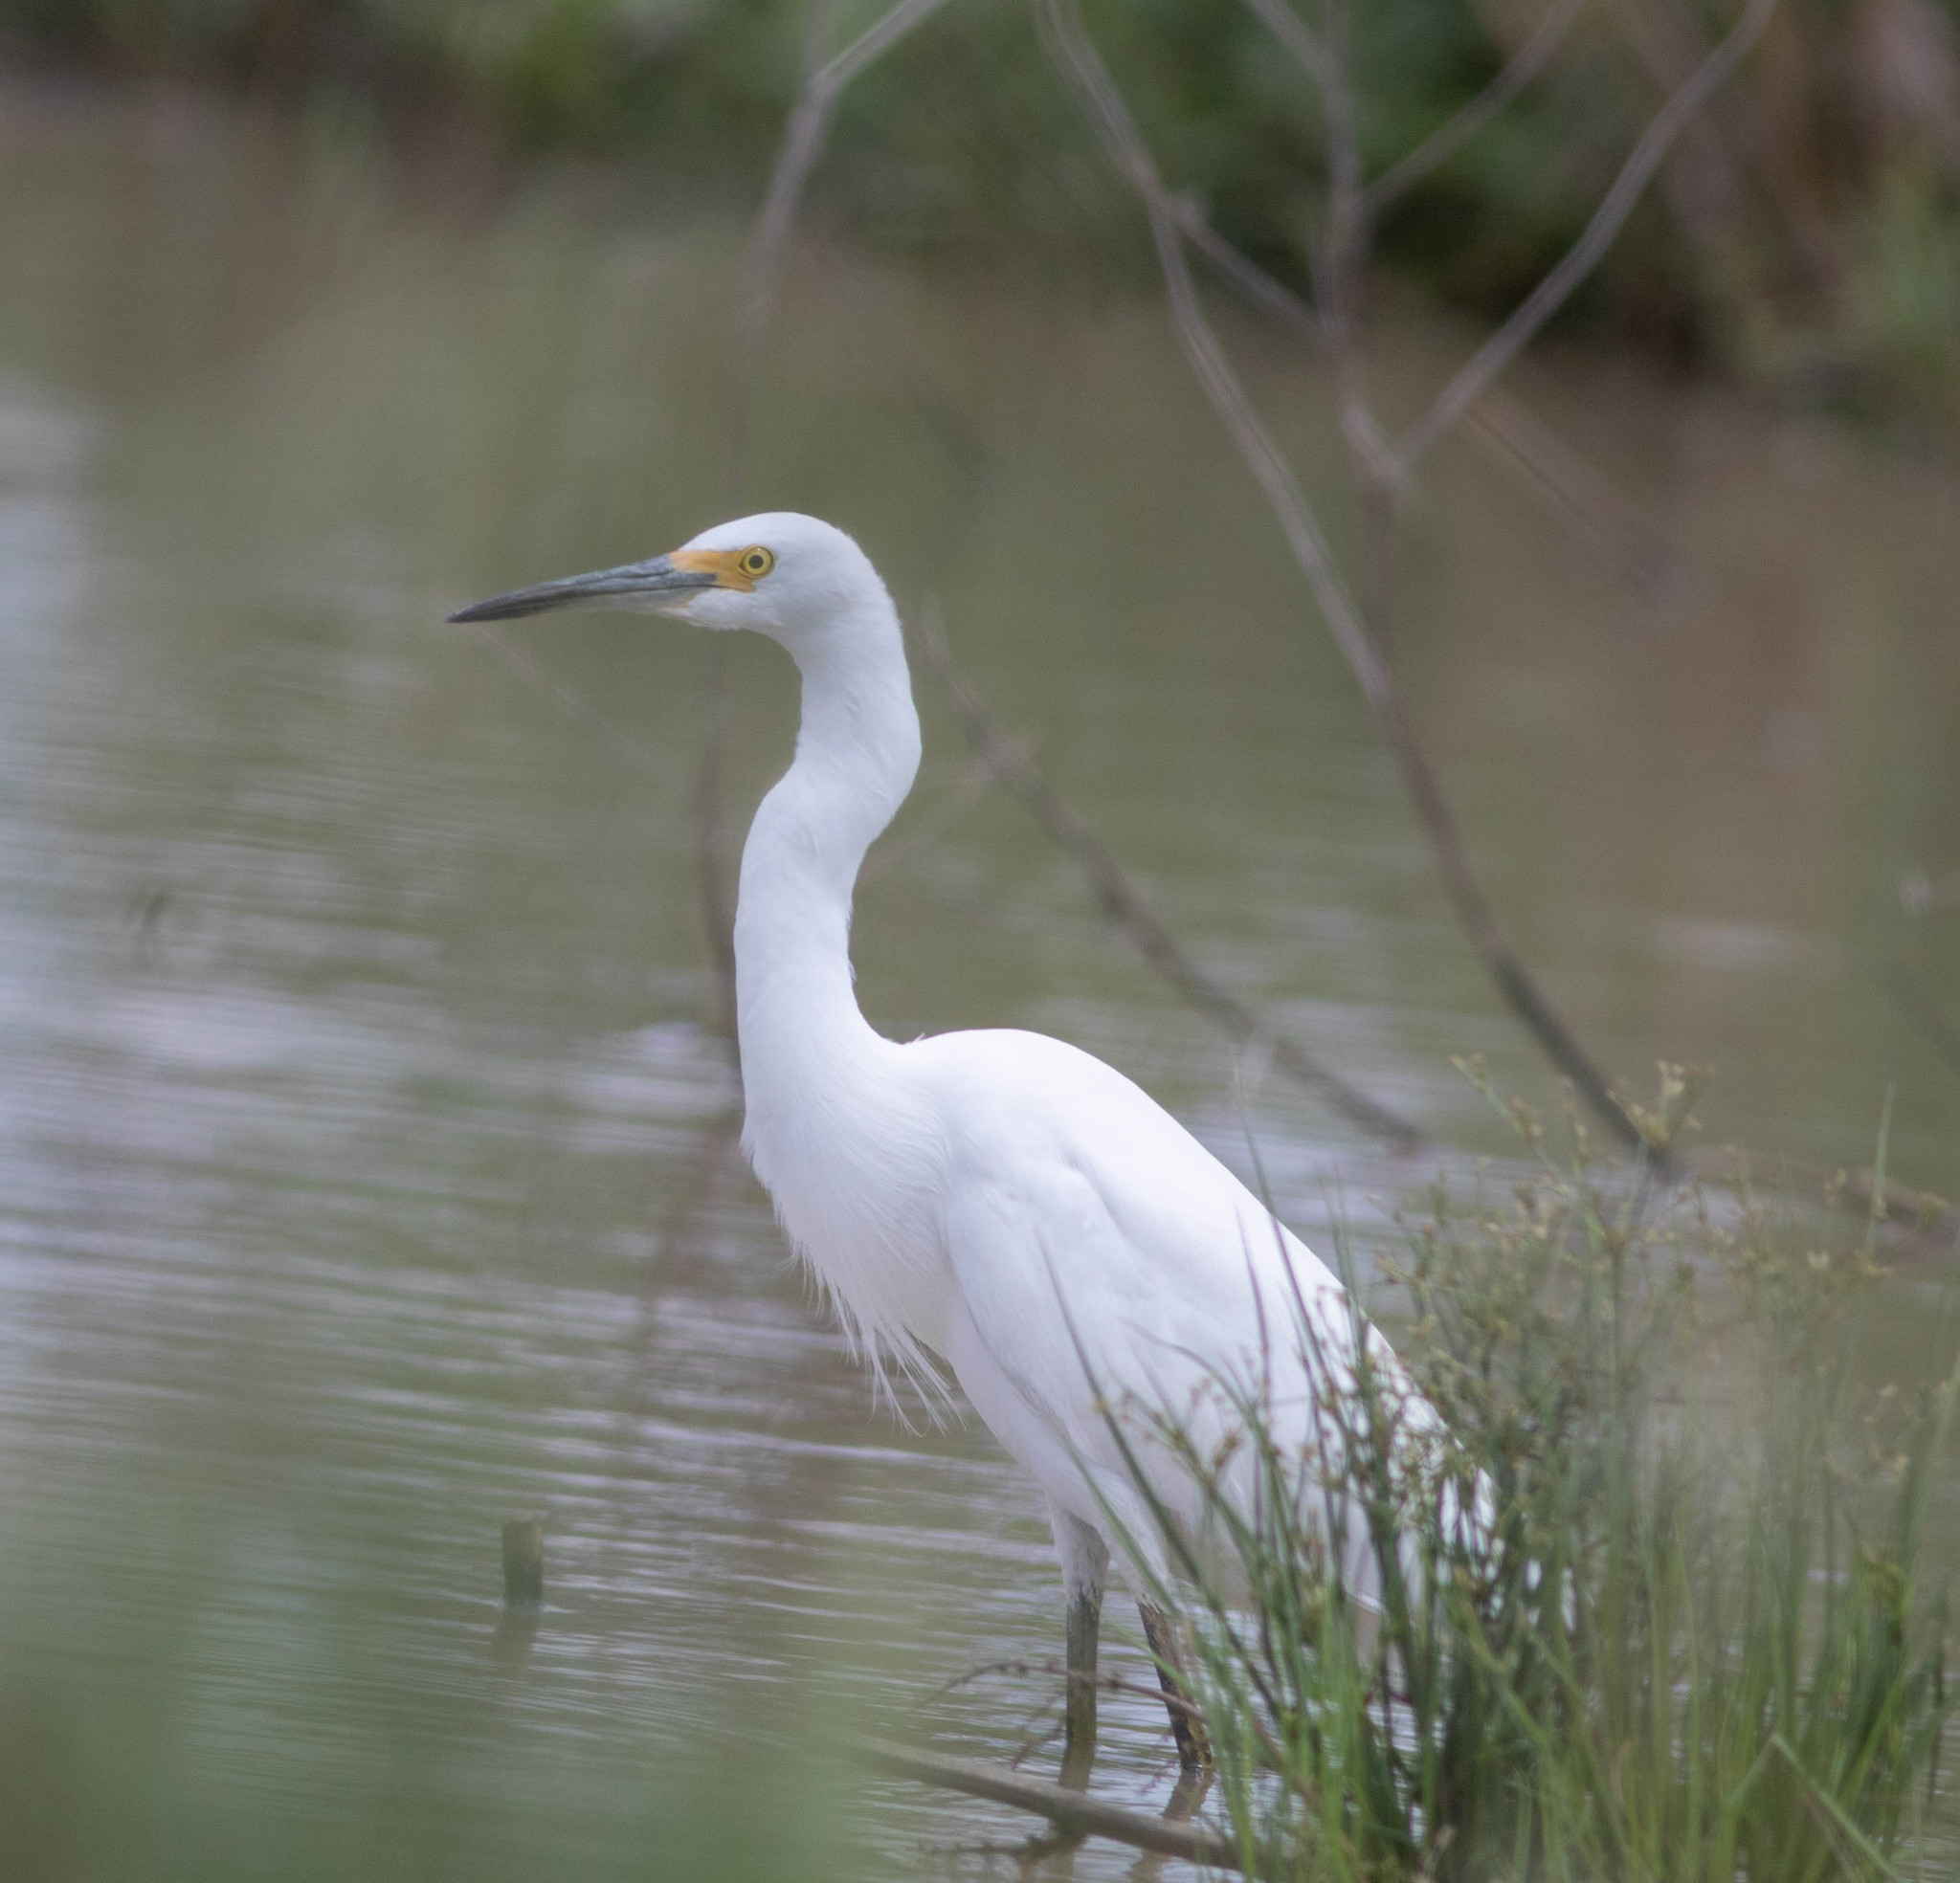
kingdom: Animalia
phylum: Chordata
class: Aves
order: Pelecaniformes
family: Ardeidae
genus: Egretta
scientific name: Egretta thula
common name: Snowy egret
